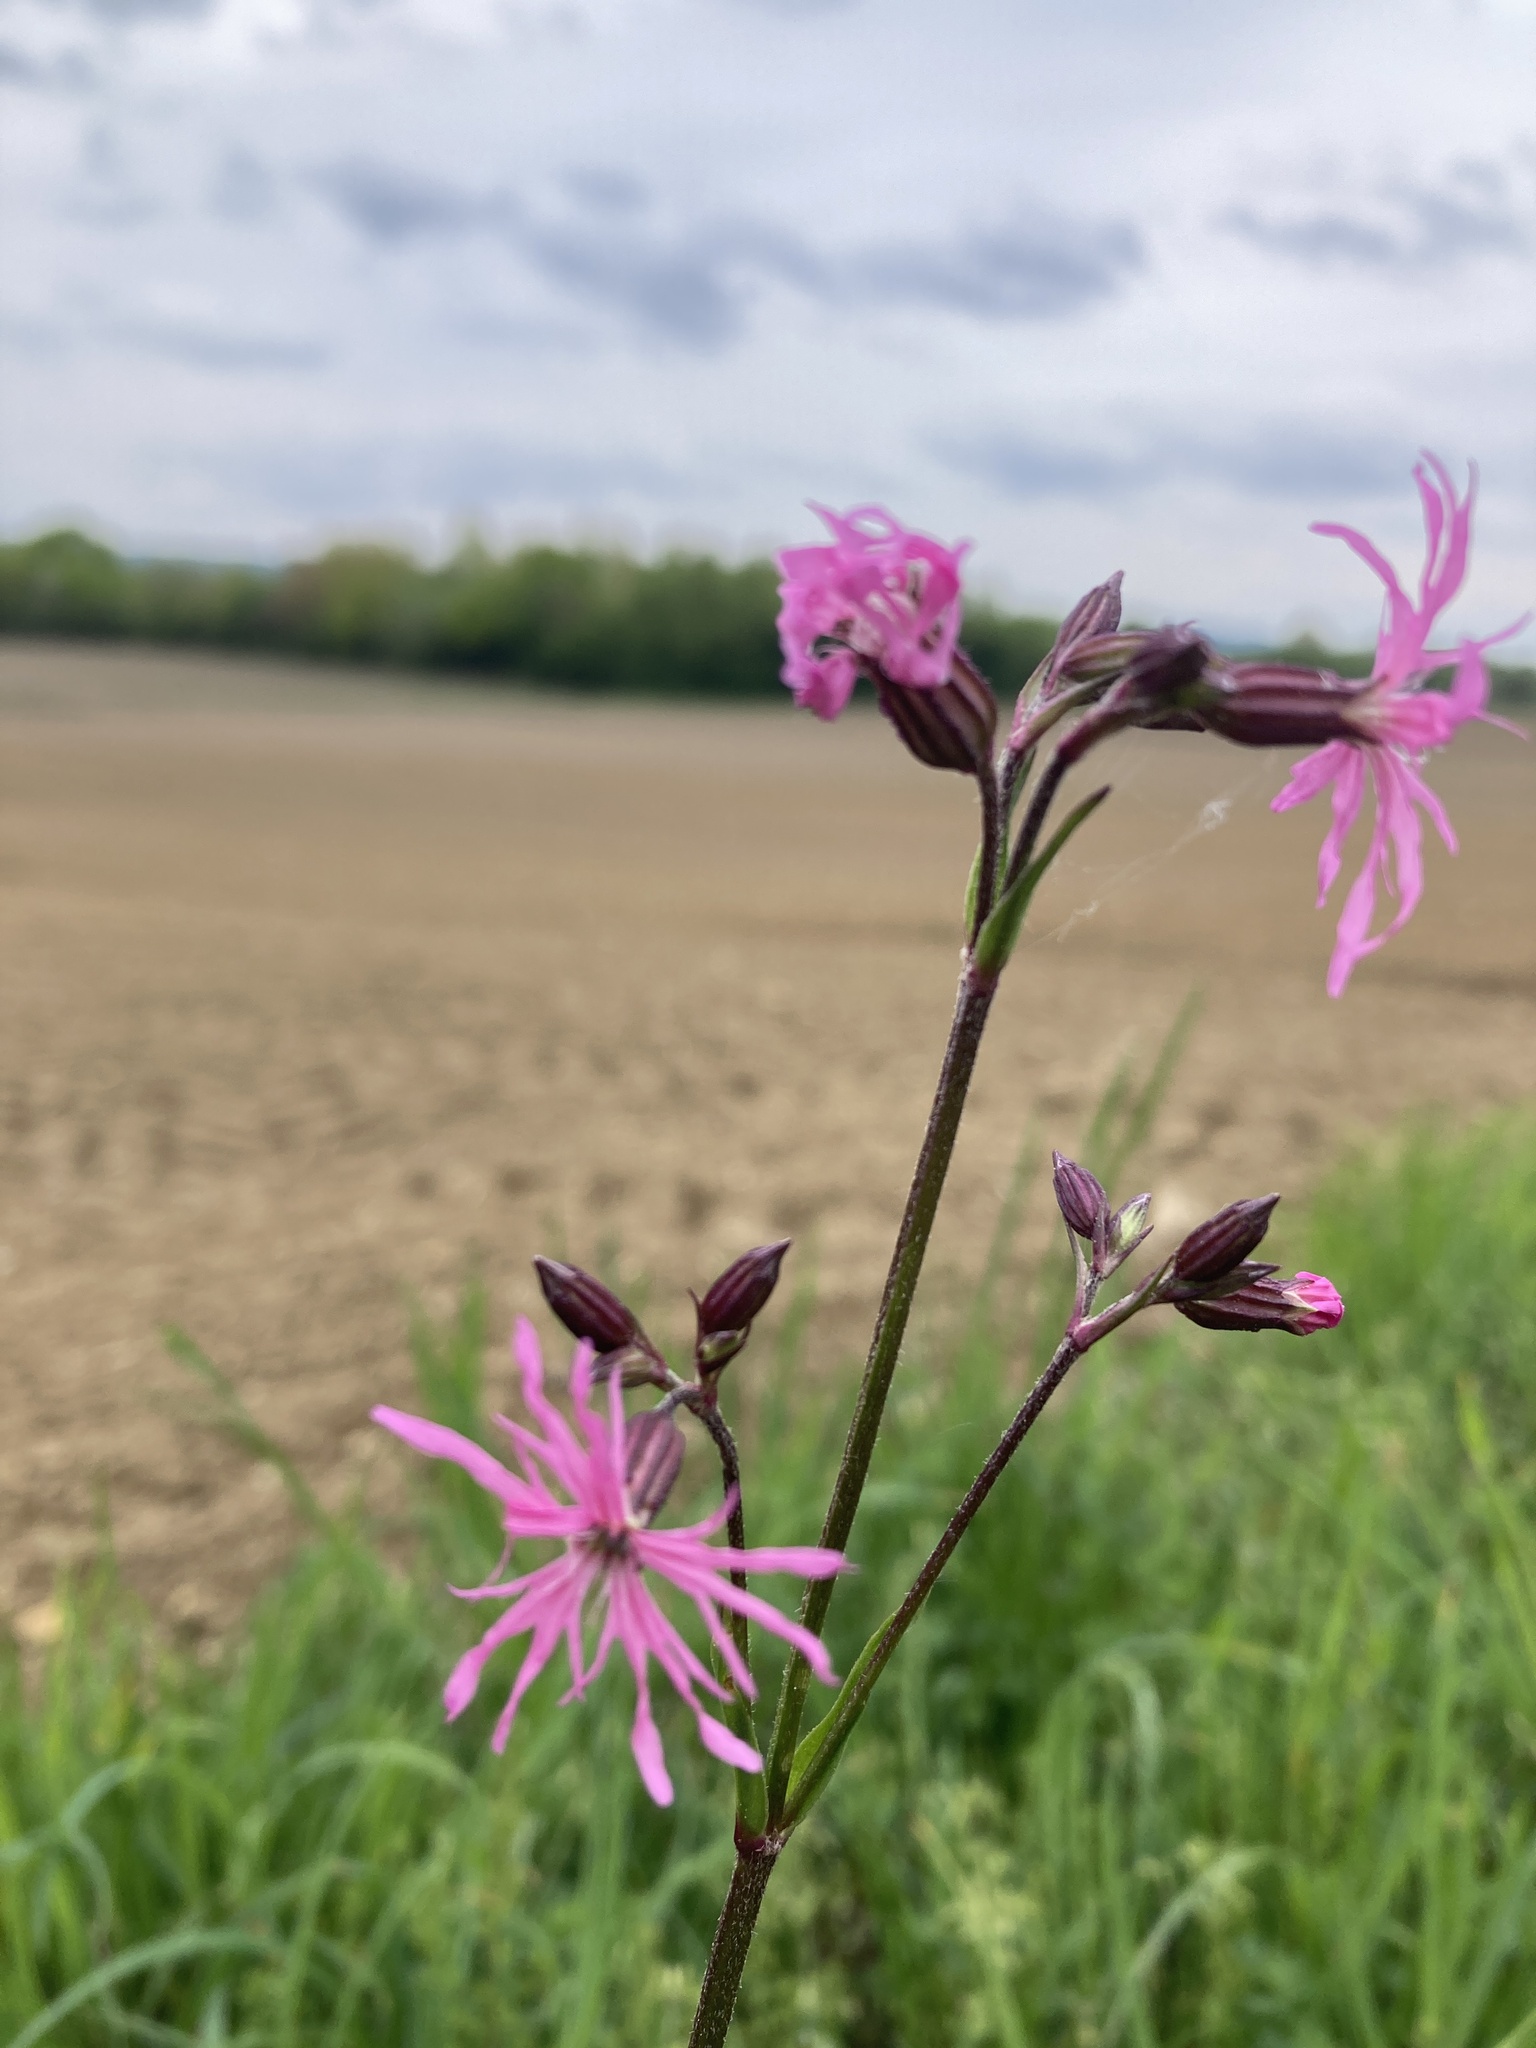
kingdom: Plantae
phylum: Tracheophyta
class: Magnoliopsida
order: Caryophyllales
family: Caryophyllaceae
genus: Silene
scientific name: Silene flos-cuculi
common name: Ragged-robin
